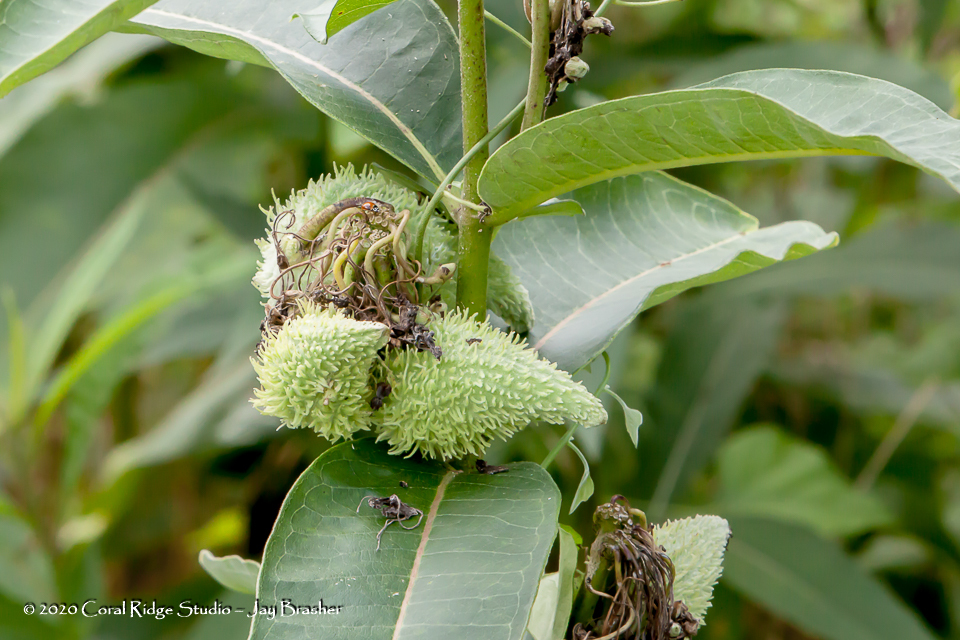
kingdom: Plantae
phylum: Tracheophyta
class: Magnoliopsida
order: Gentianales
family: Apocynaceae
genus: Asclepias
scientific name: Asclepias syriaca
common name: Common milkweed
